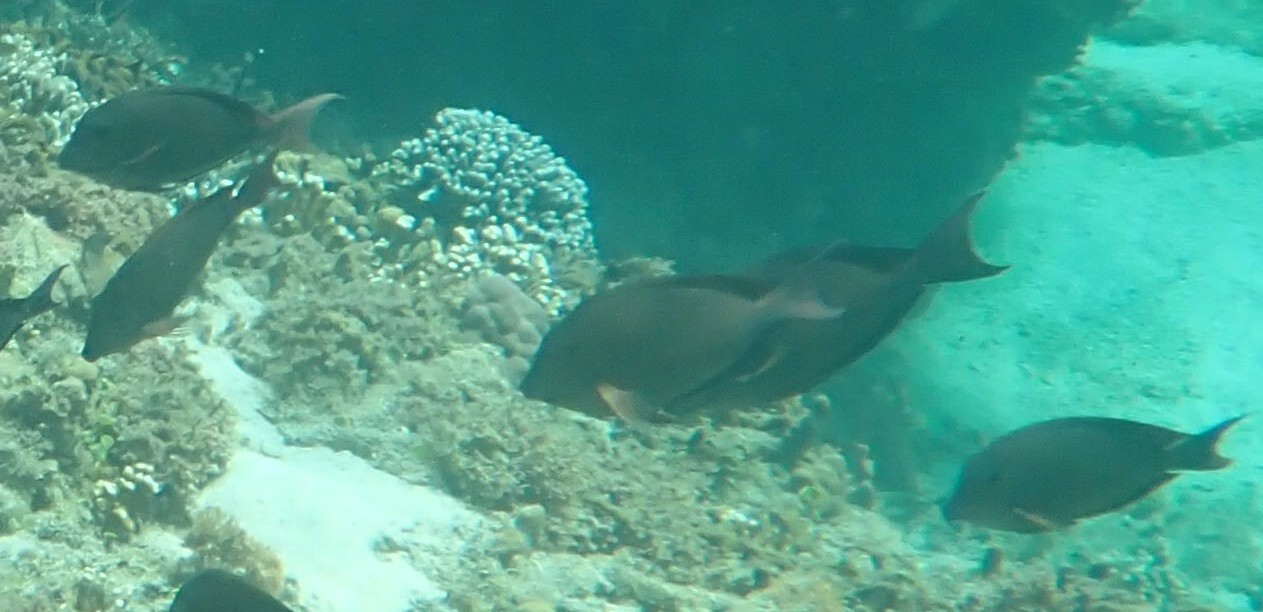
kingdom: Animalia
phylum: Chordata
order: Perciformes
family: Acanthuridae
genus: Acanthurus
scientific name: Acanthurus nigrofuscus
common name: Blackspot surgeonfish
